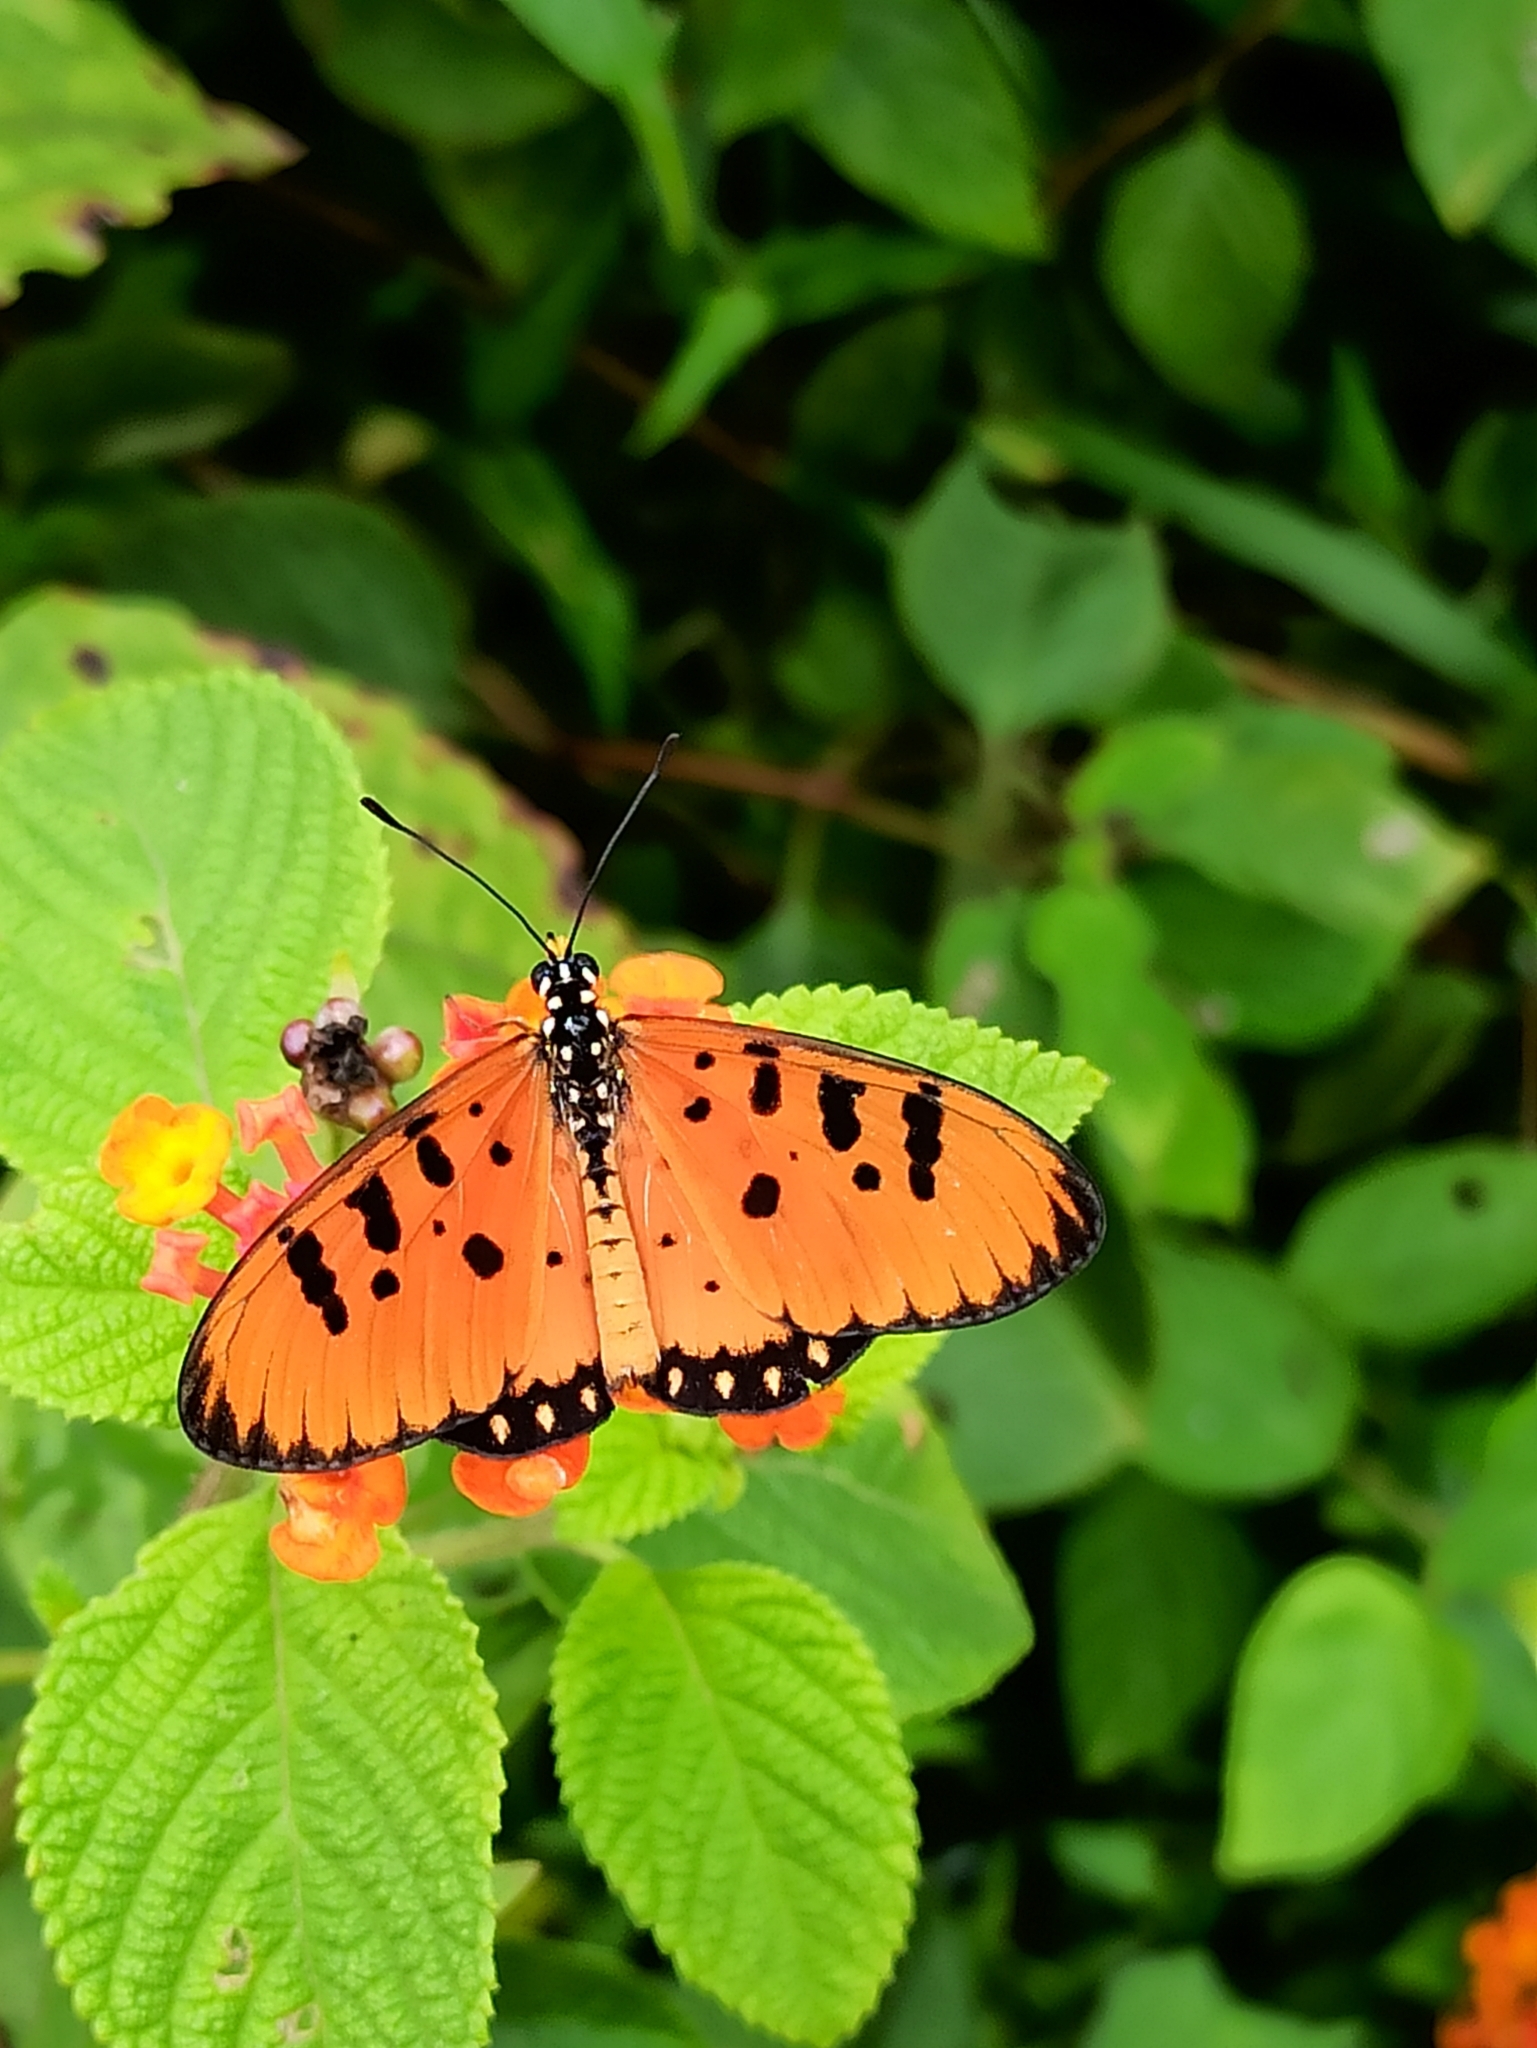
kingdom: Animalia
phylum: Arthropoda
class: Insecta
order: Lepidoptera
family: Nymphalidae
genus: Acraea
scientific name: Acraea terpsicore
